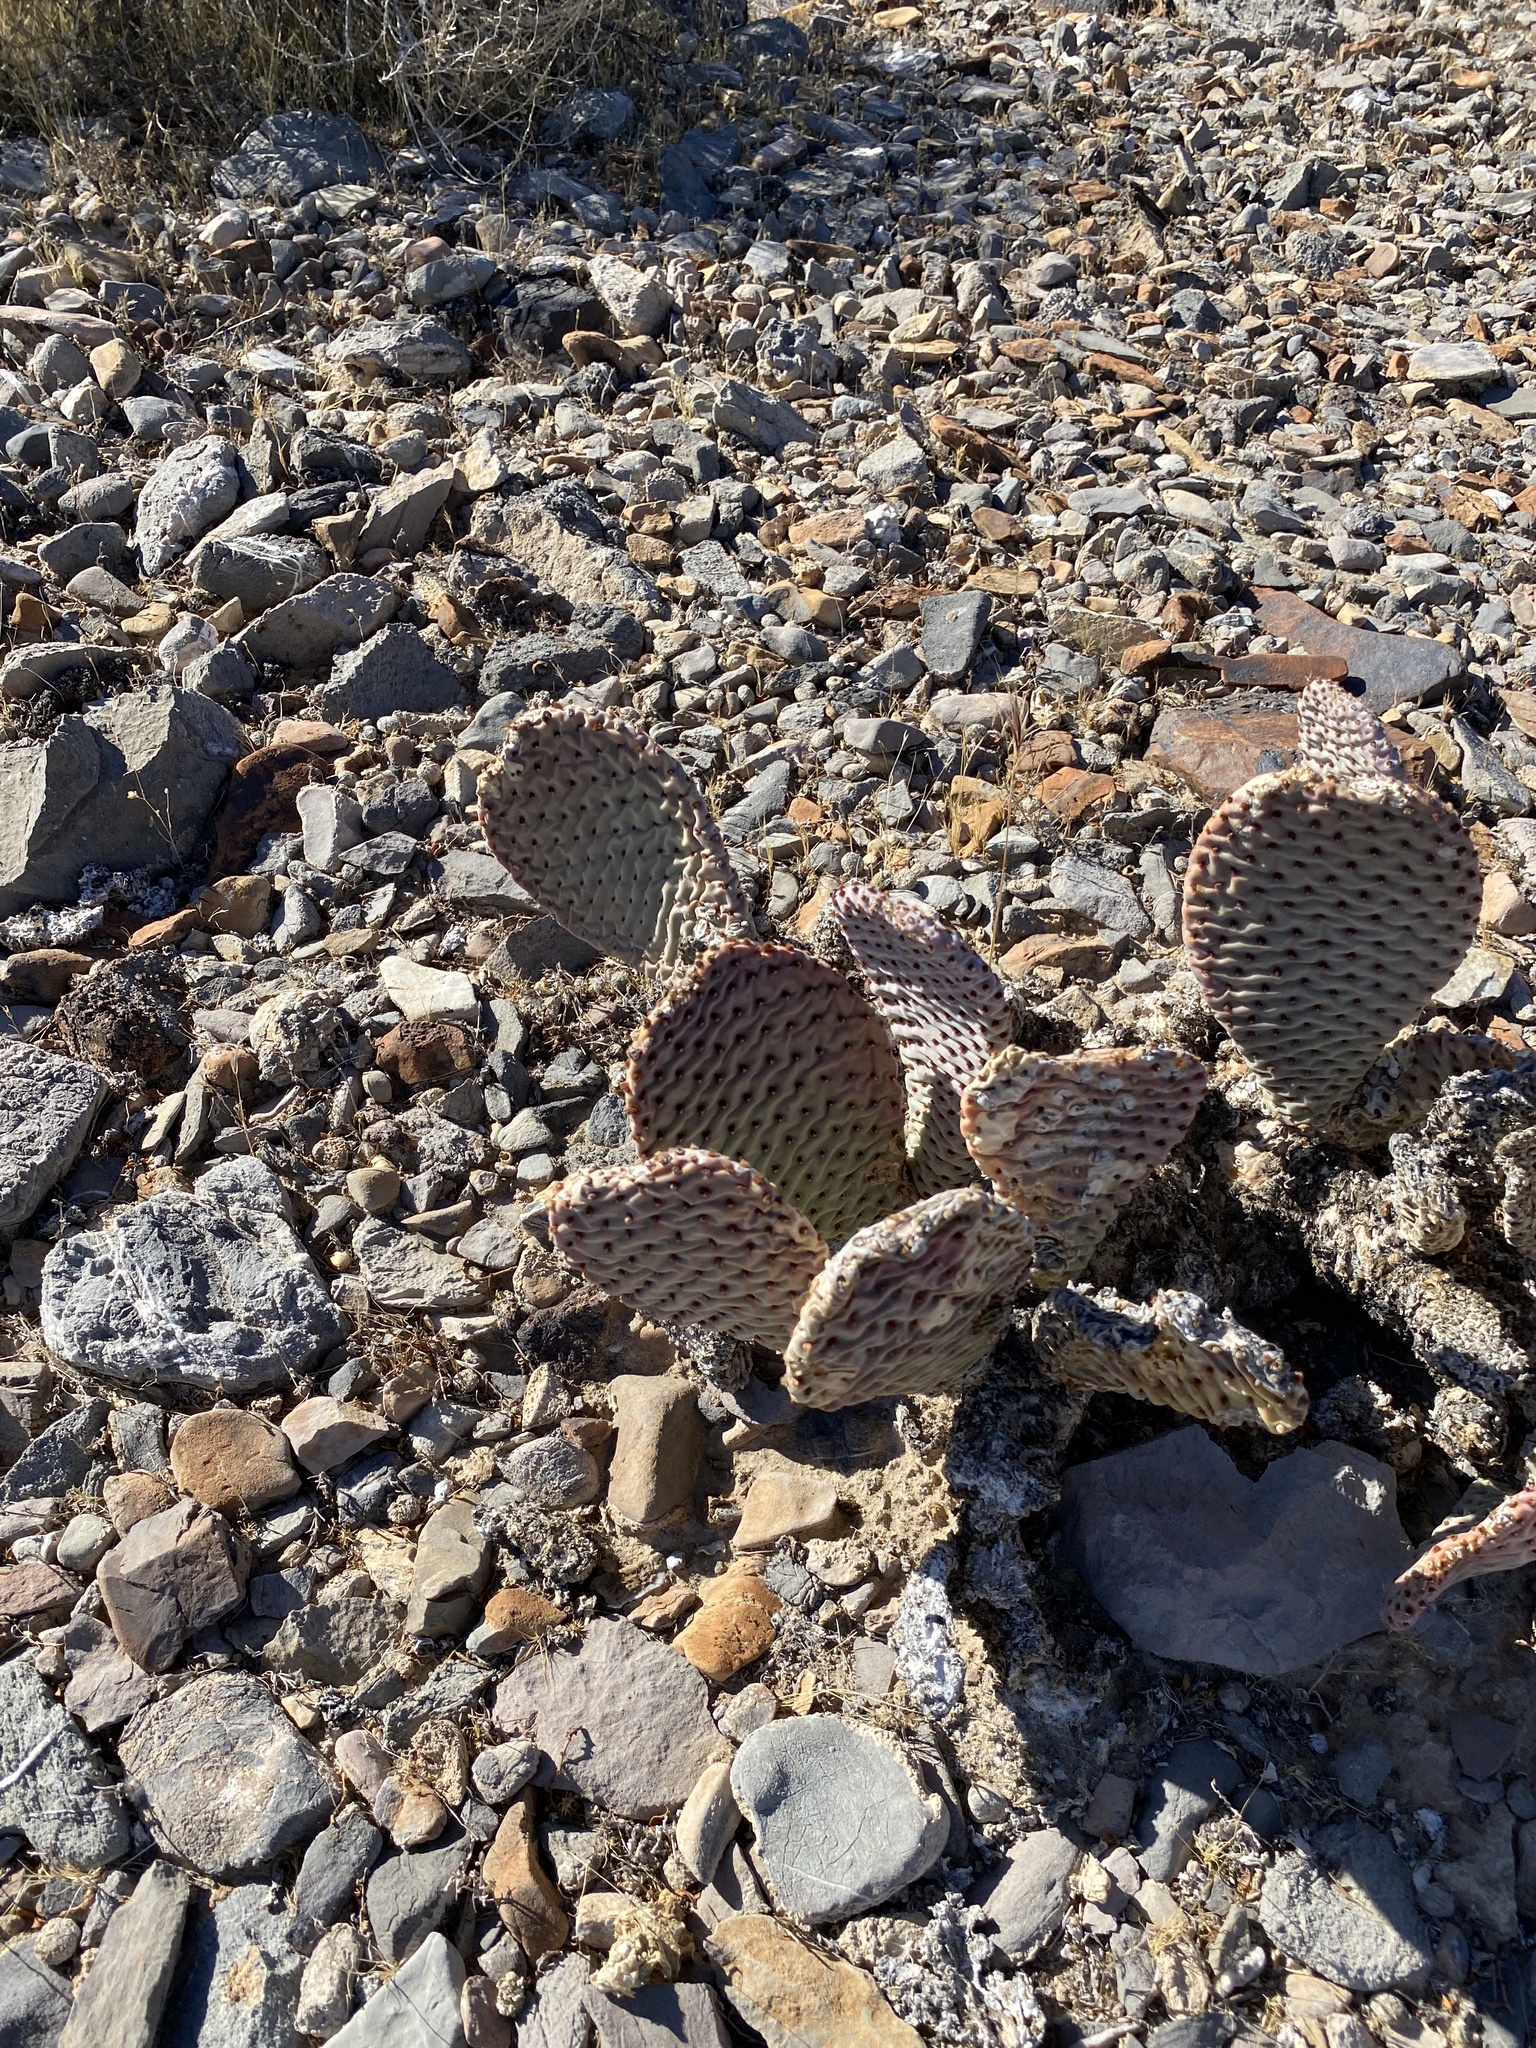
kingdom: Plantae
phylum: Tracheophyta
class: Magnoliopsida
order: Caryophyllales
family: Cactaceae
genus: Opuntia
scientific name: Opuntia basilaris
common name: Beavertail prickly-pear
